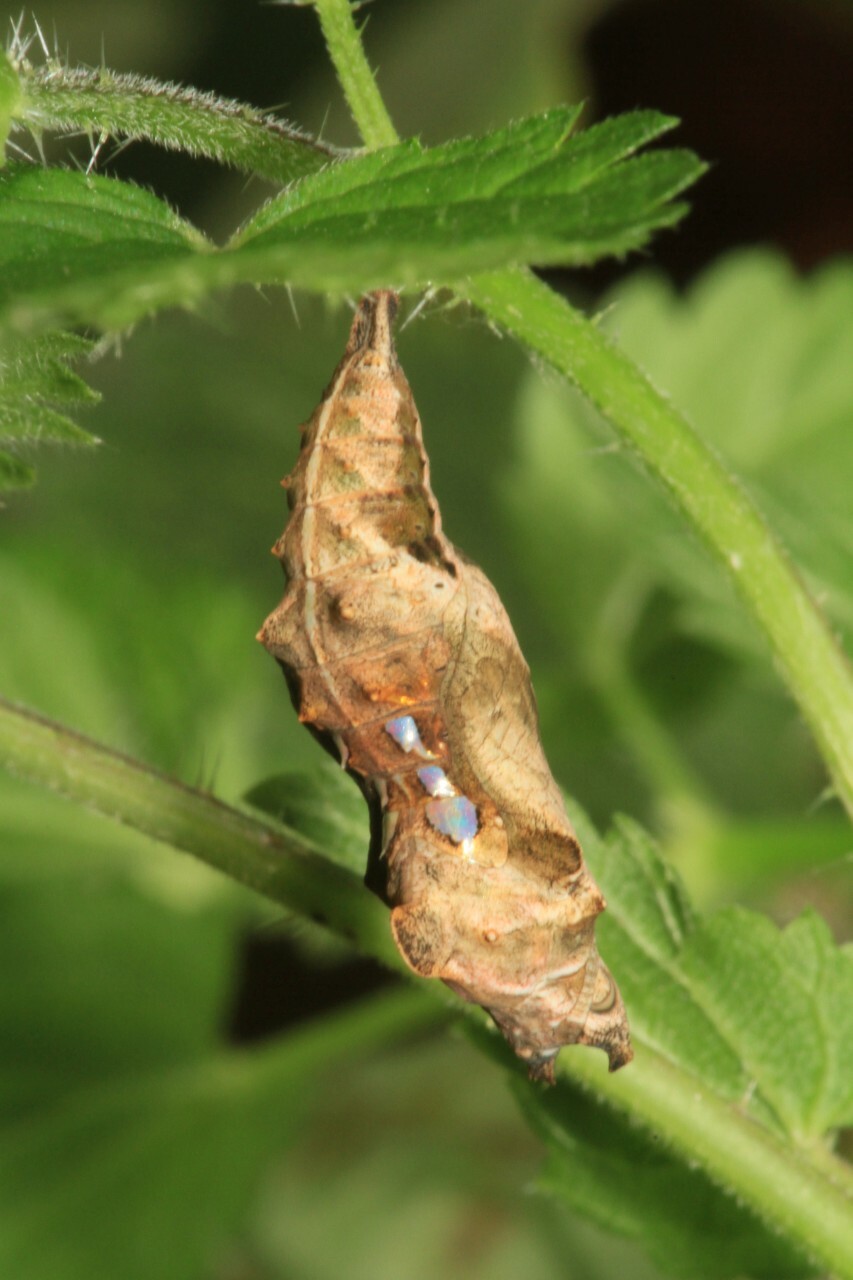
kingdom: Animalia
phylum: Arthropoda
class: Insecta
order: Lepidoptera
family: Nymphalidae
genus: Polygonia
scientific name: Polygonia c-album
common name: Comma
